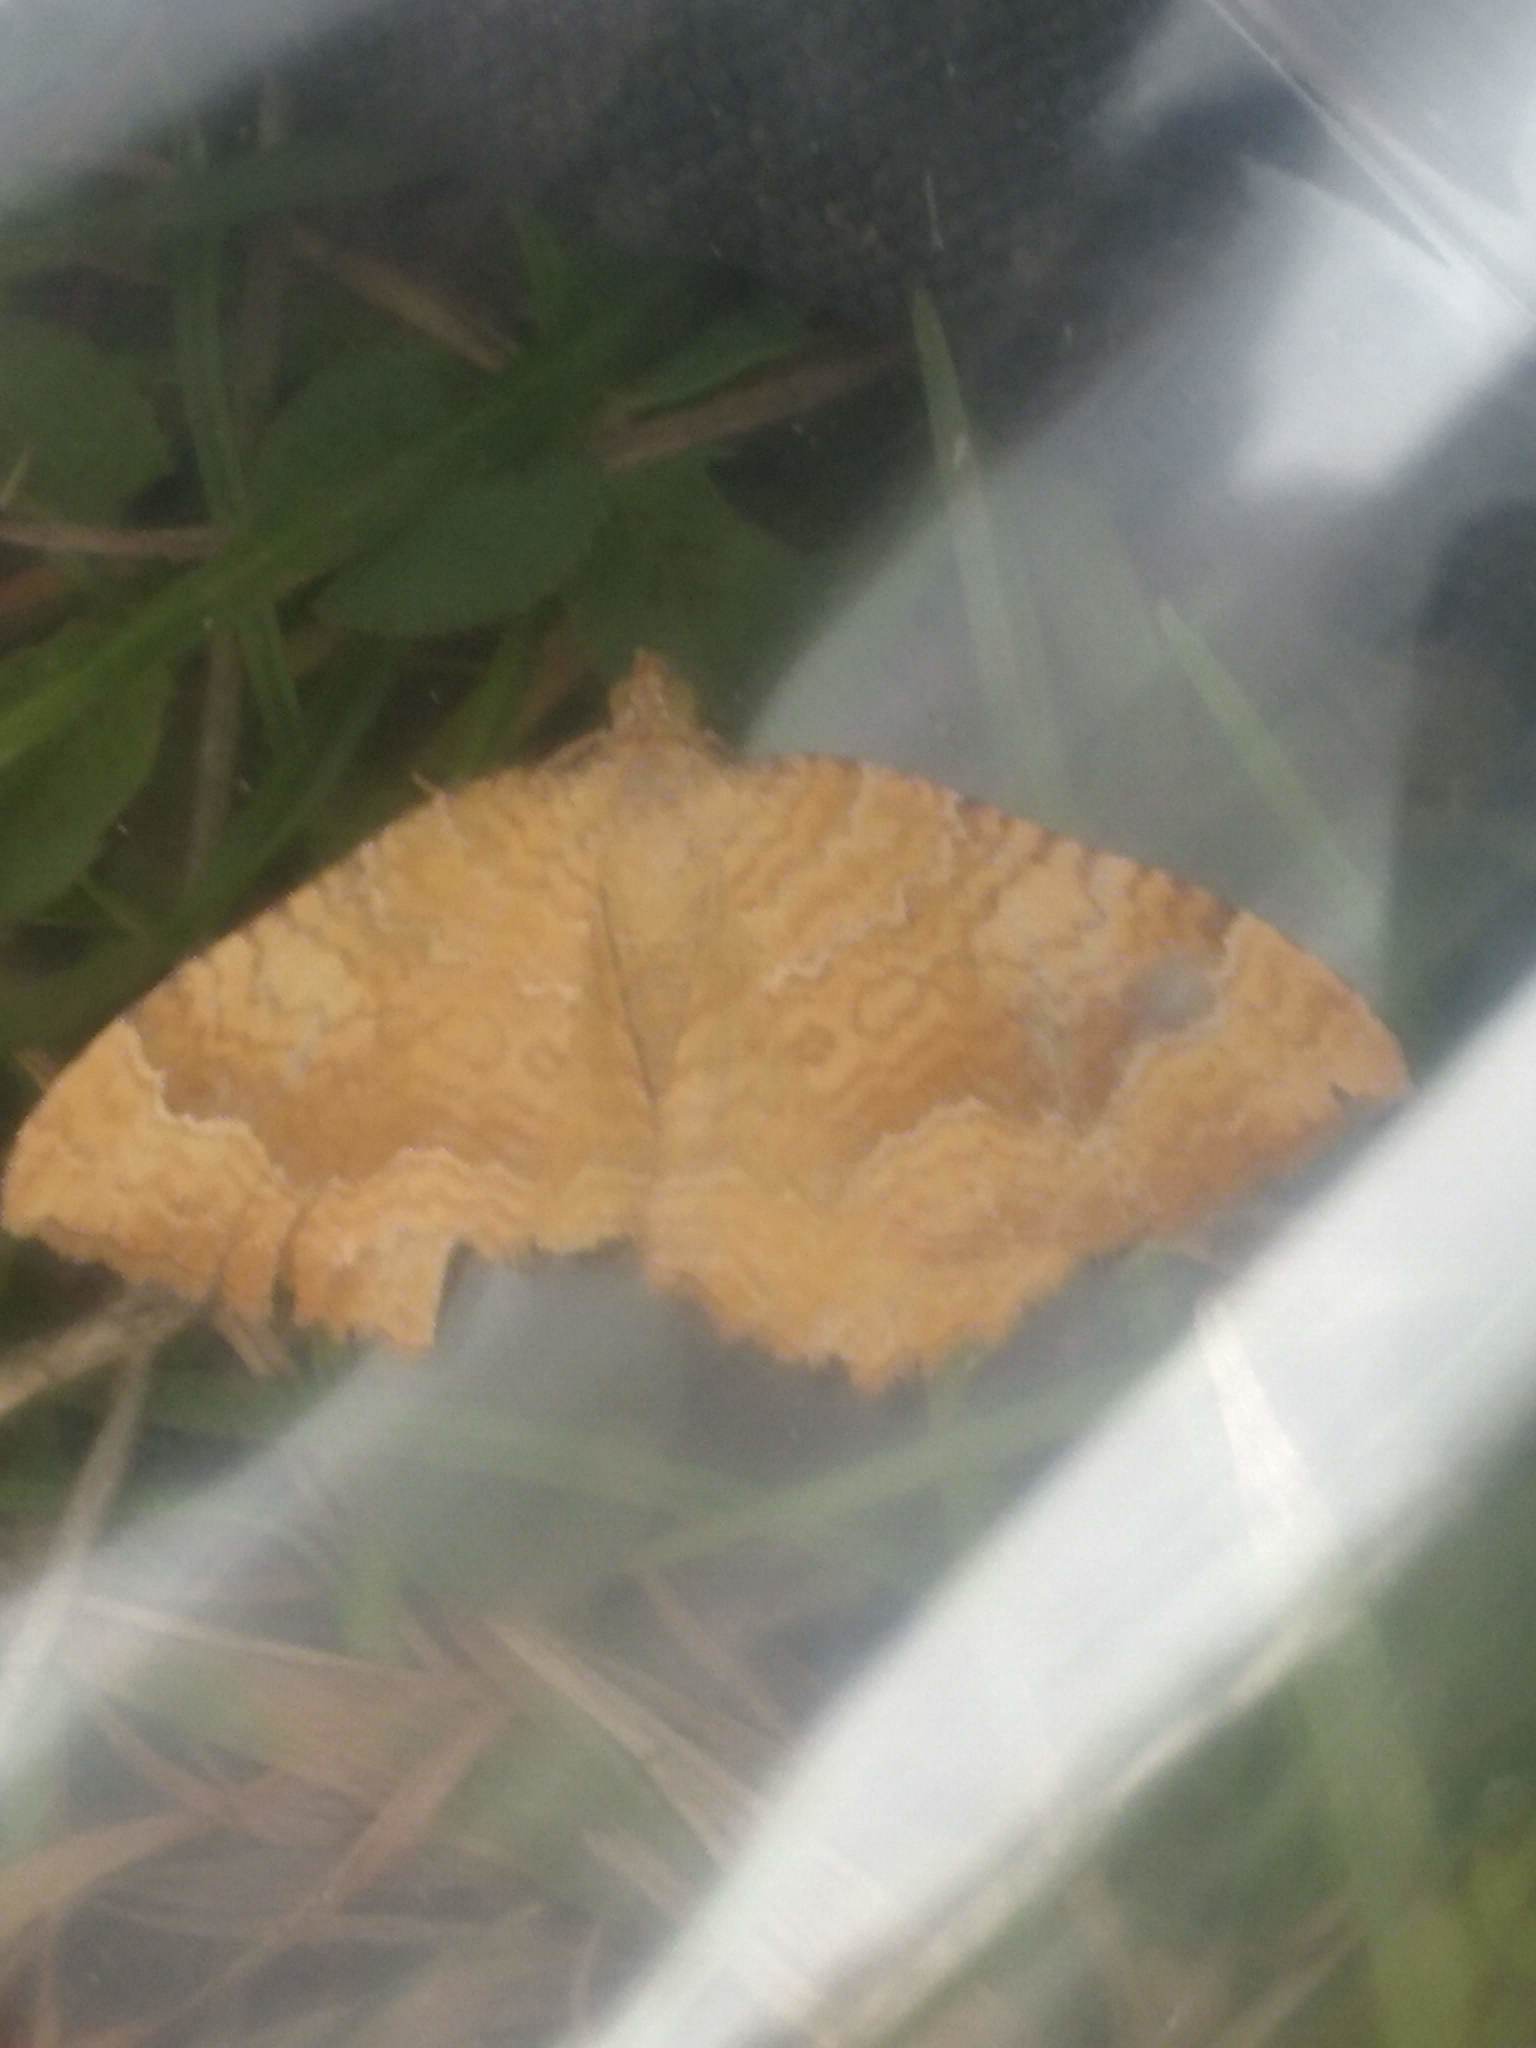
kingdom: Animalia
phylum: Arthropoda
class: Insecta
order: Lepidoptera
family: Geometridae
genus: Camptogramma
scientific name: Camptogramma bilineata
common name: Yellow shell
